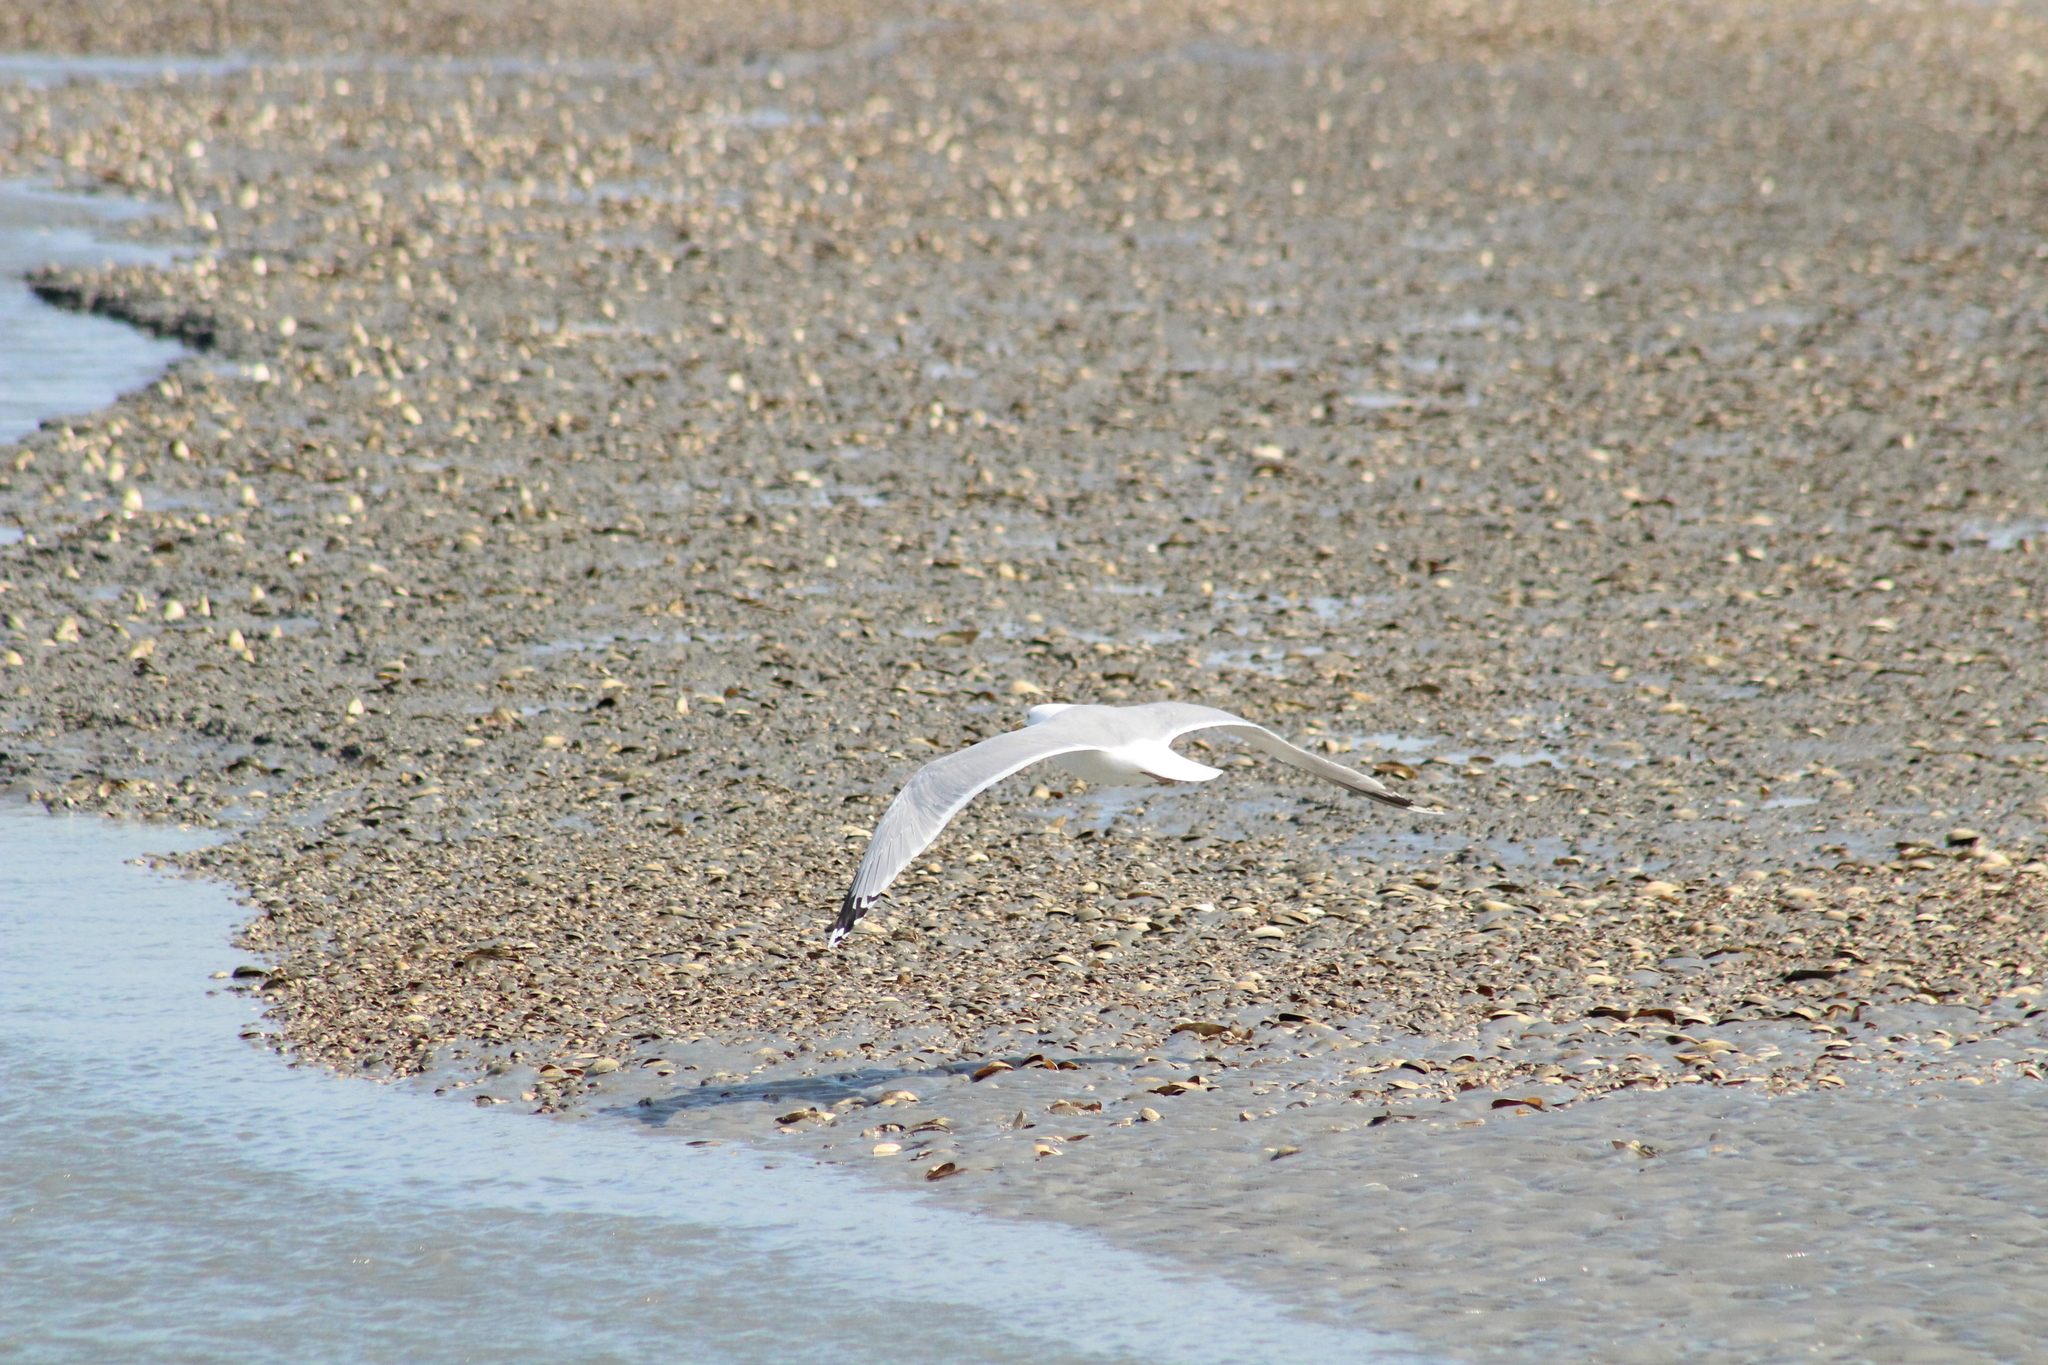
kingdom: Animalia
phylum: Chordata
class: Aves
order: Charadriiformes
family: Laridae
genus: Larus
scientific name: Larus argentatus
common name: Herring gull
